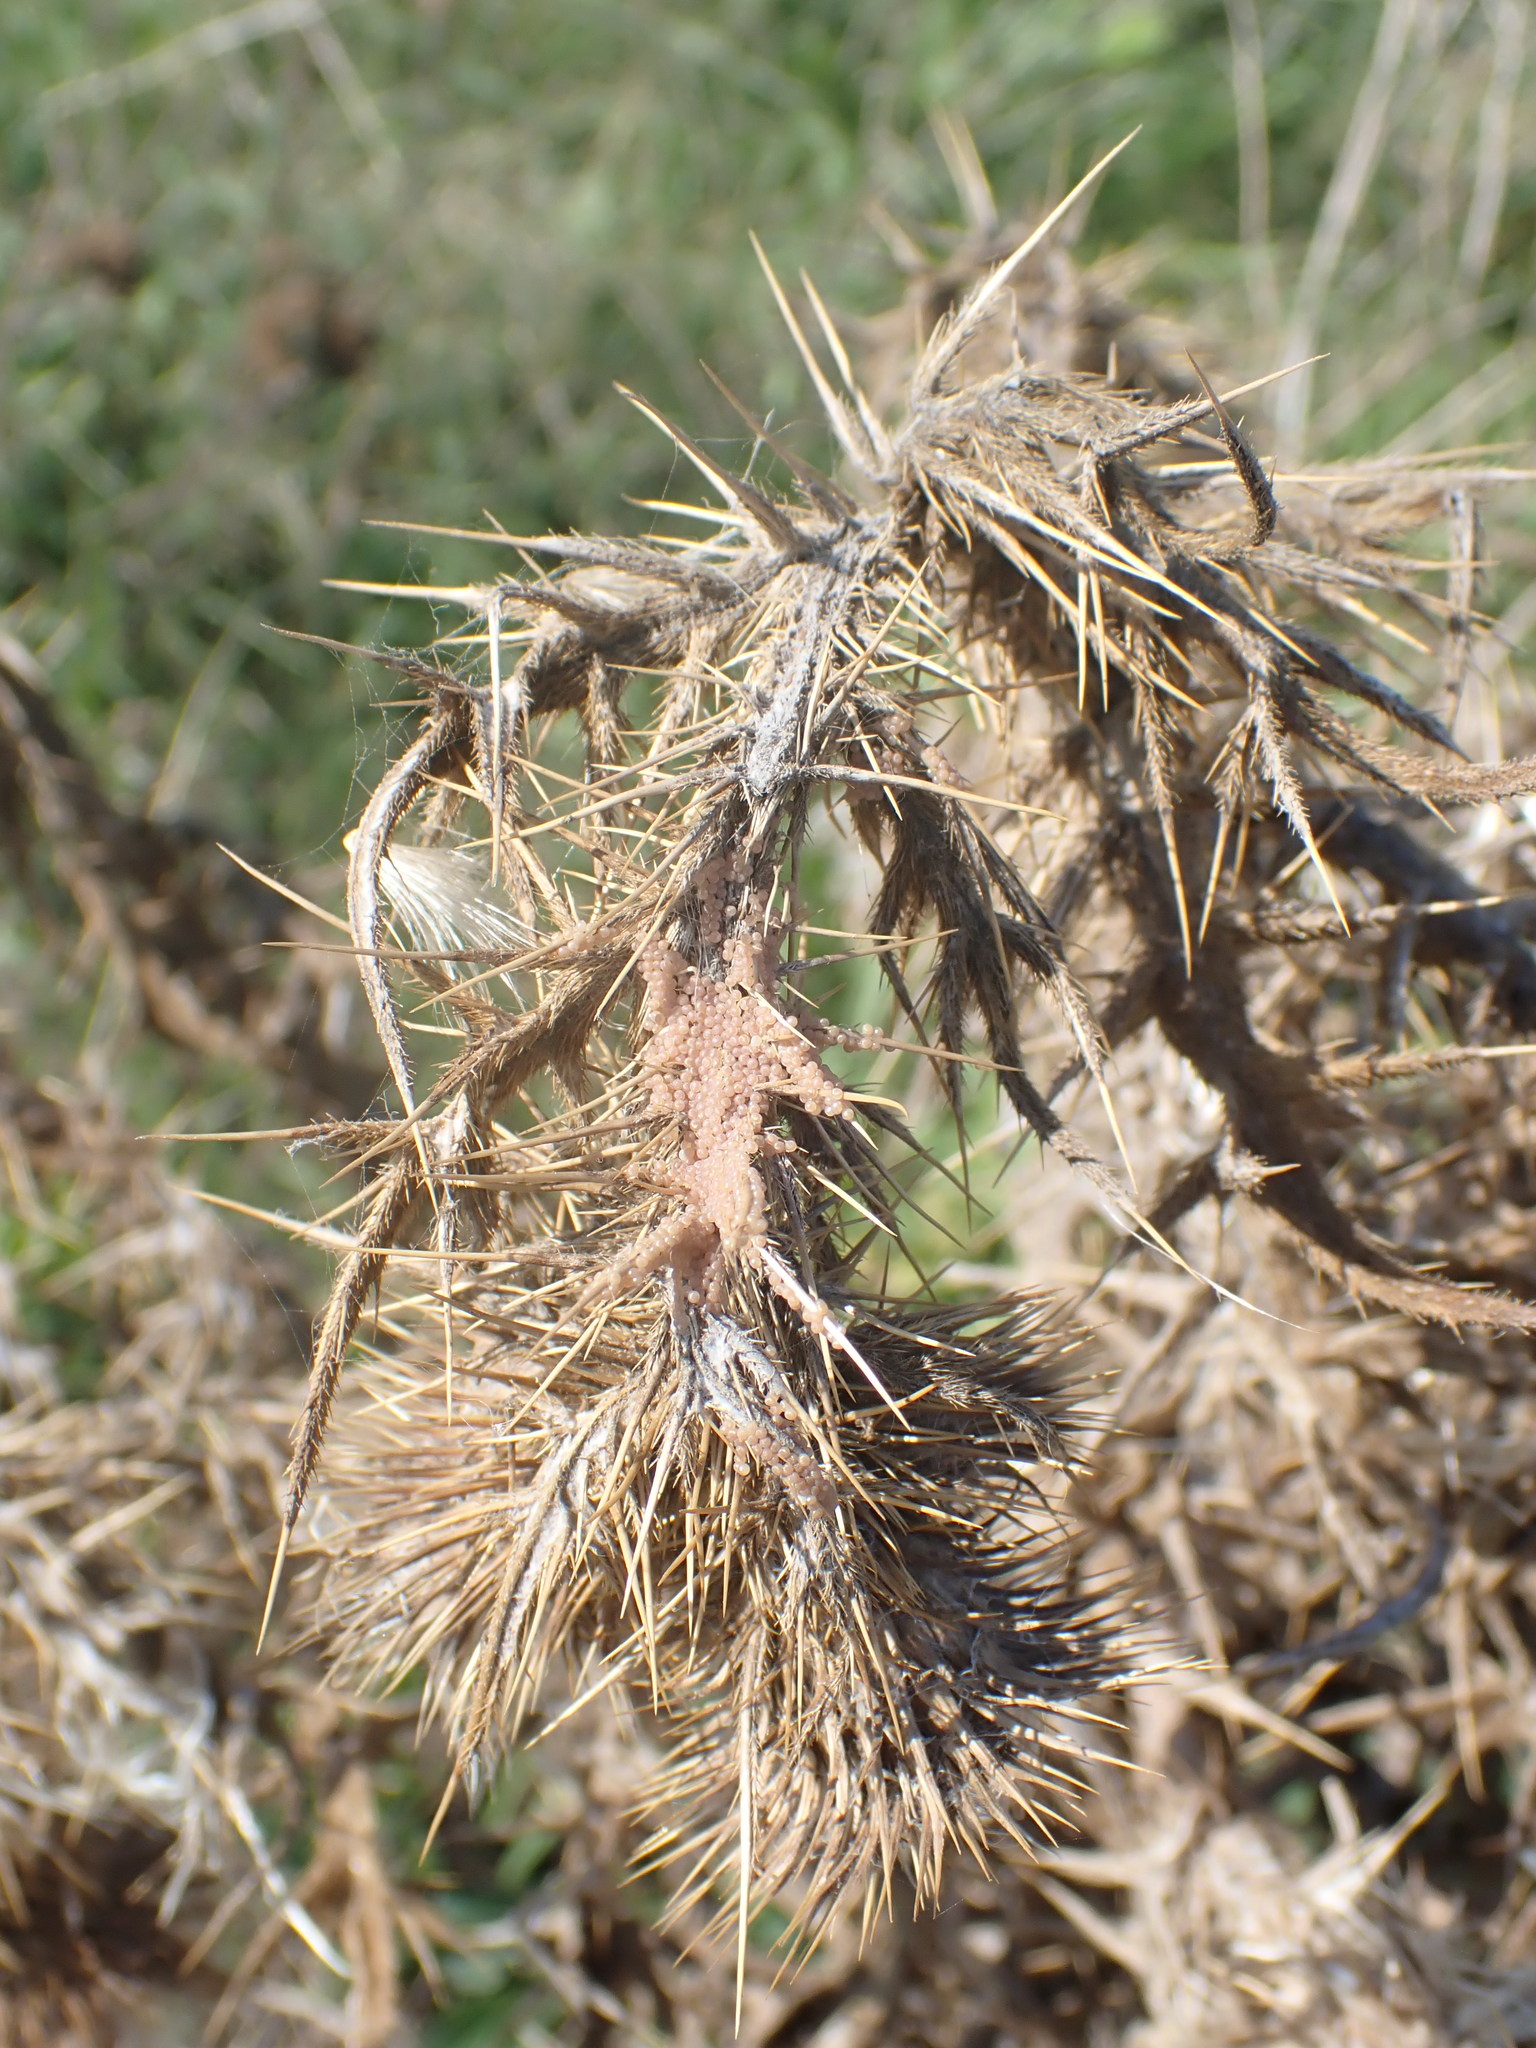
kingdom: Plantae
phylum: Tracheophyta
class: Magnoliopsida
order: Asterales
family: Asteraceae
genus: Cirsium
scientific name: Cirsium vulgare
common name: Bull thistle
